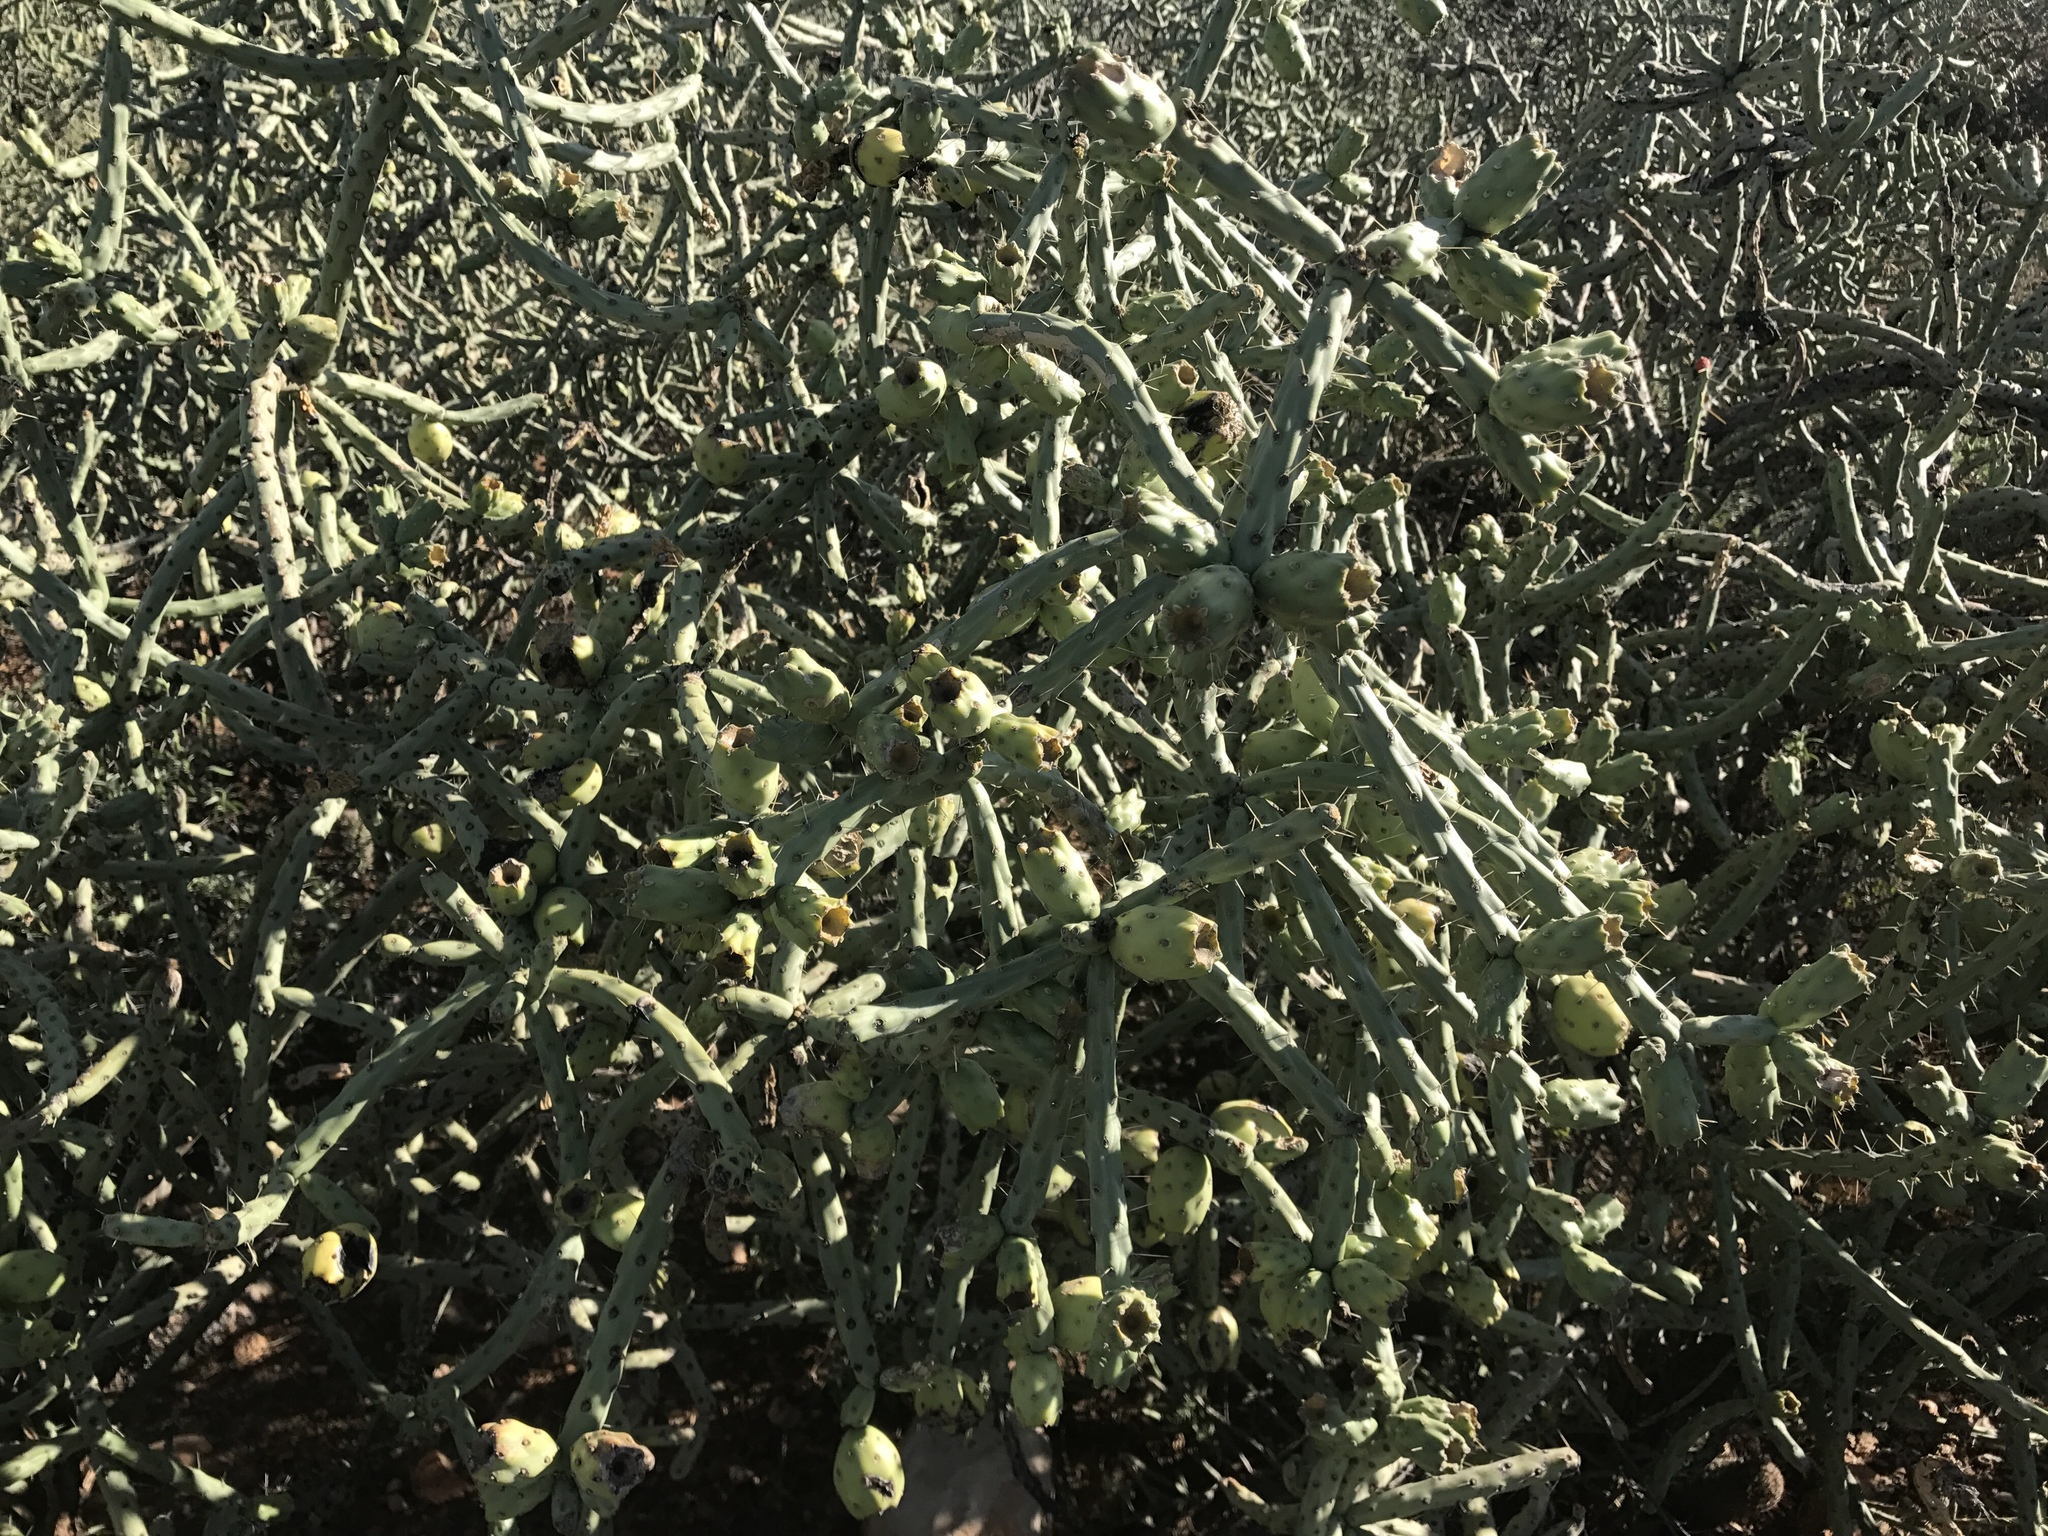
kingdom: Plantae
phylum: Tracheophyta
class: Magnoliopsida
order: Caryophyllales
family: Cactaceae
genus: Cylindropuntia
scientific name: Cylindropuntia arbuscula
